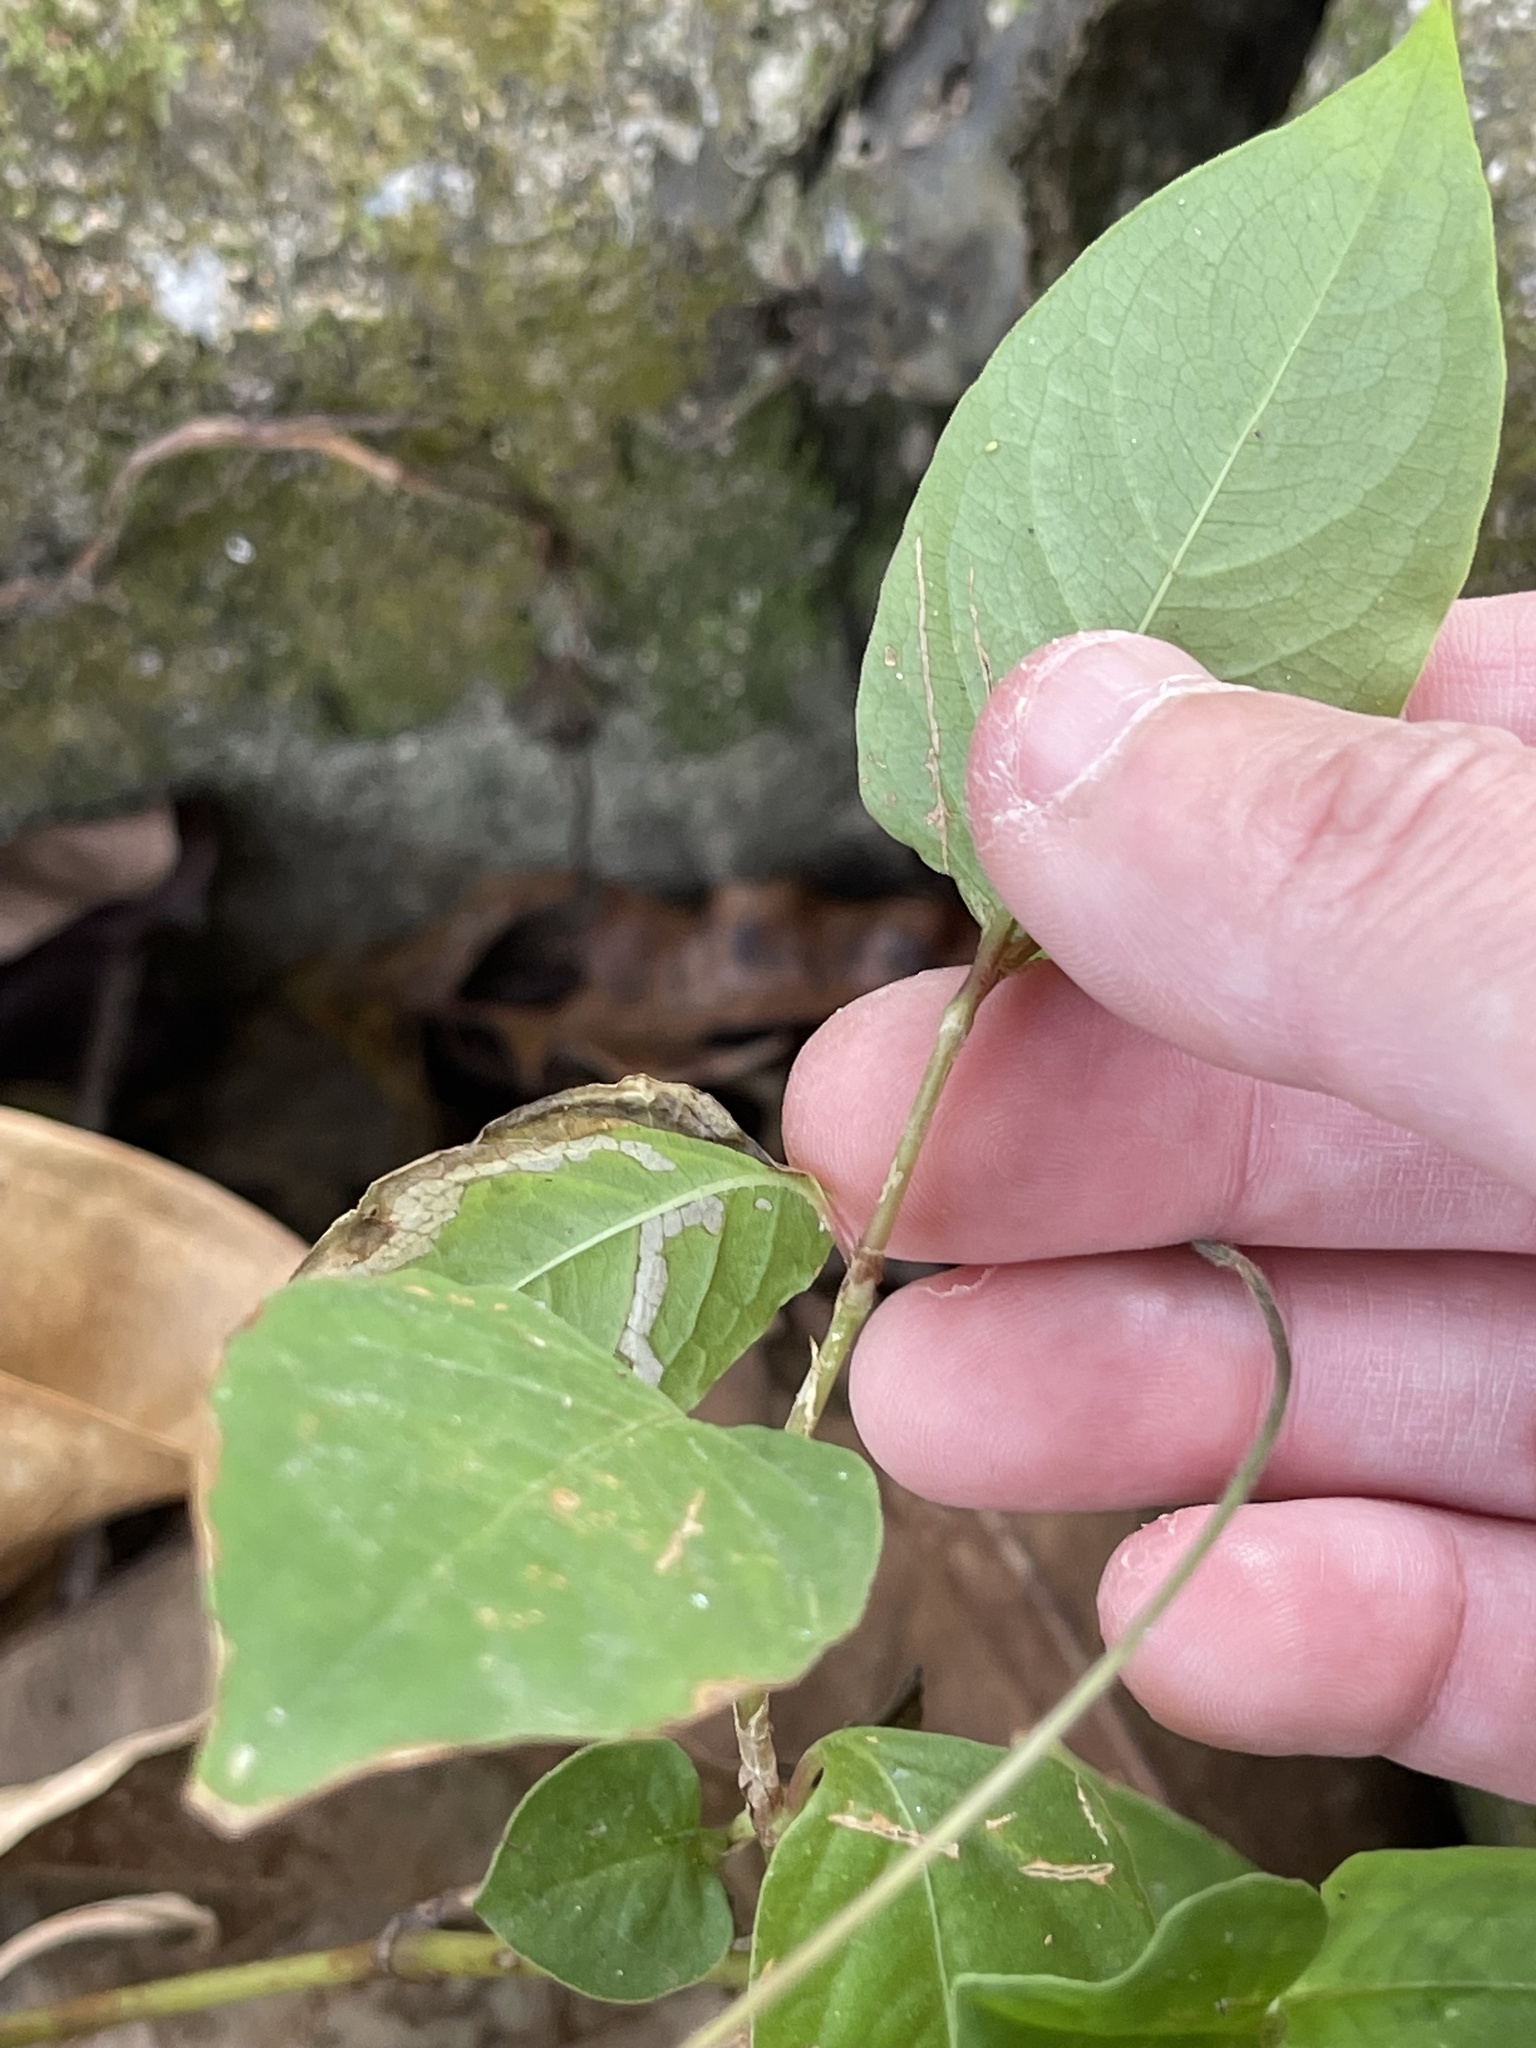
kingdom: Plantae
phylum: Tracheophyta
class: Magnoliopsida
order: Caryophyllales
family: Polygonaceae
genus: Persicaria
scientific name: Persicaria chinensis
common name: Chinese knotweed
